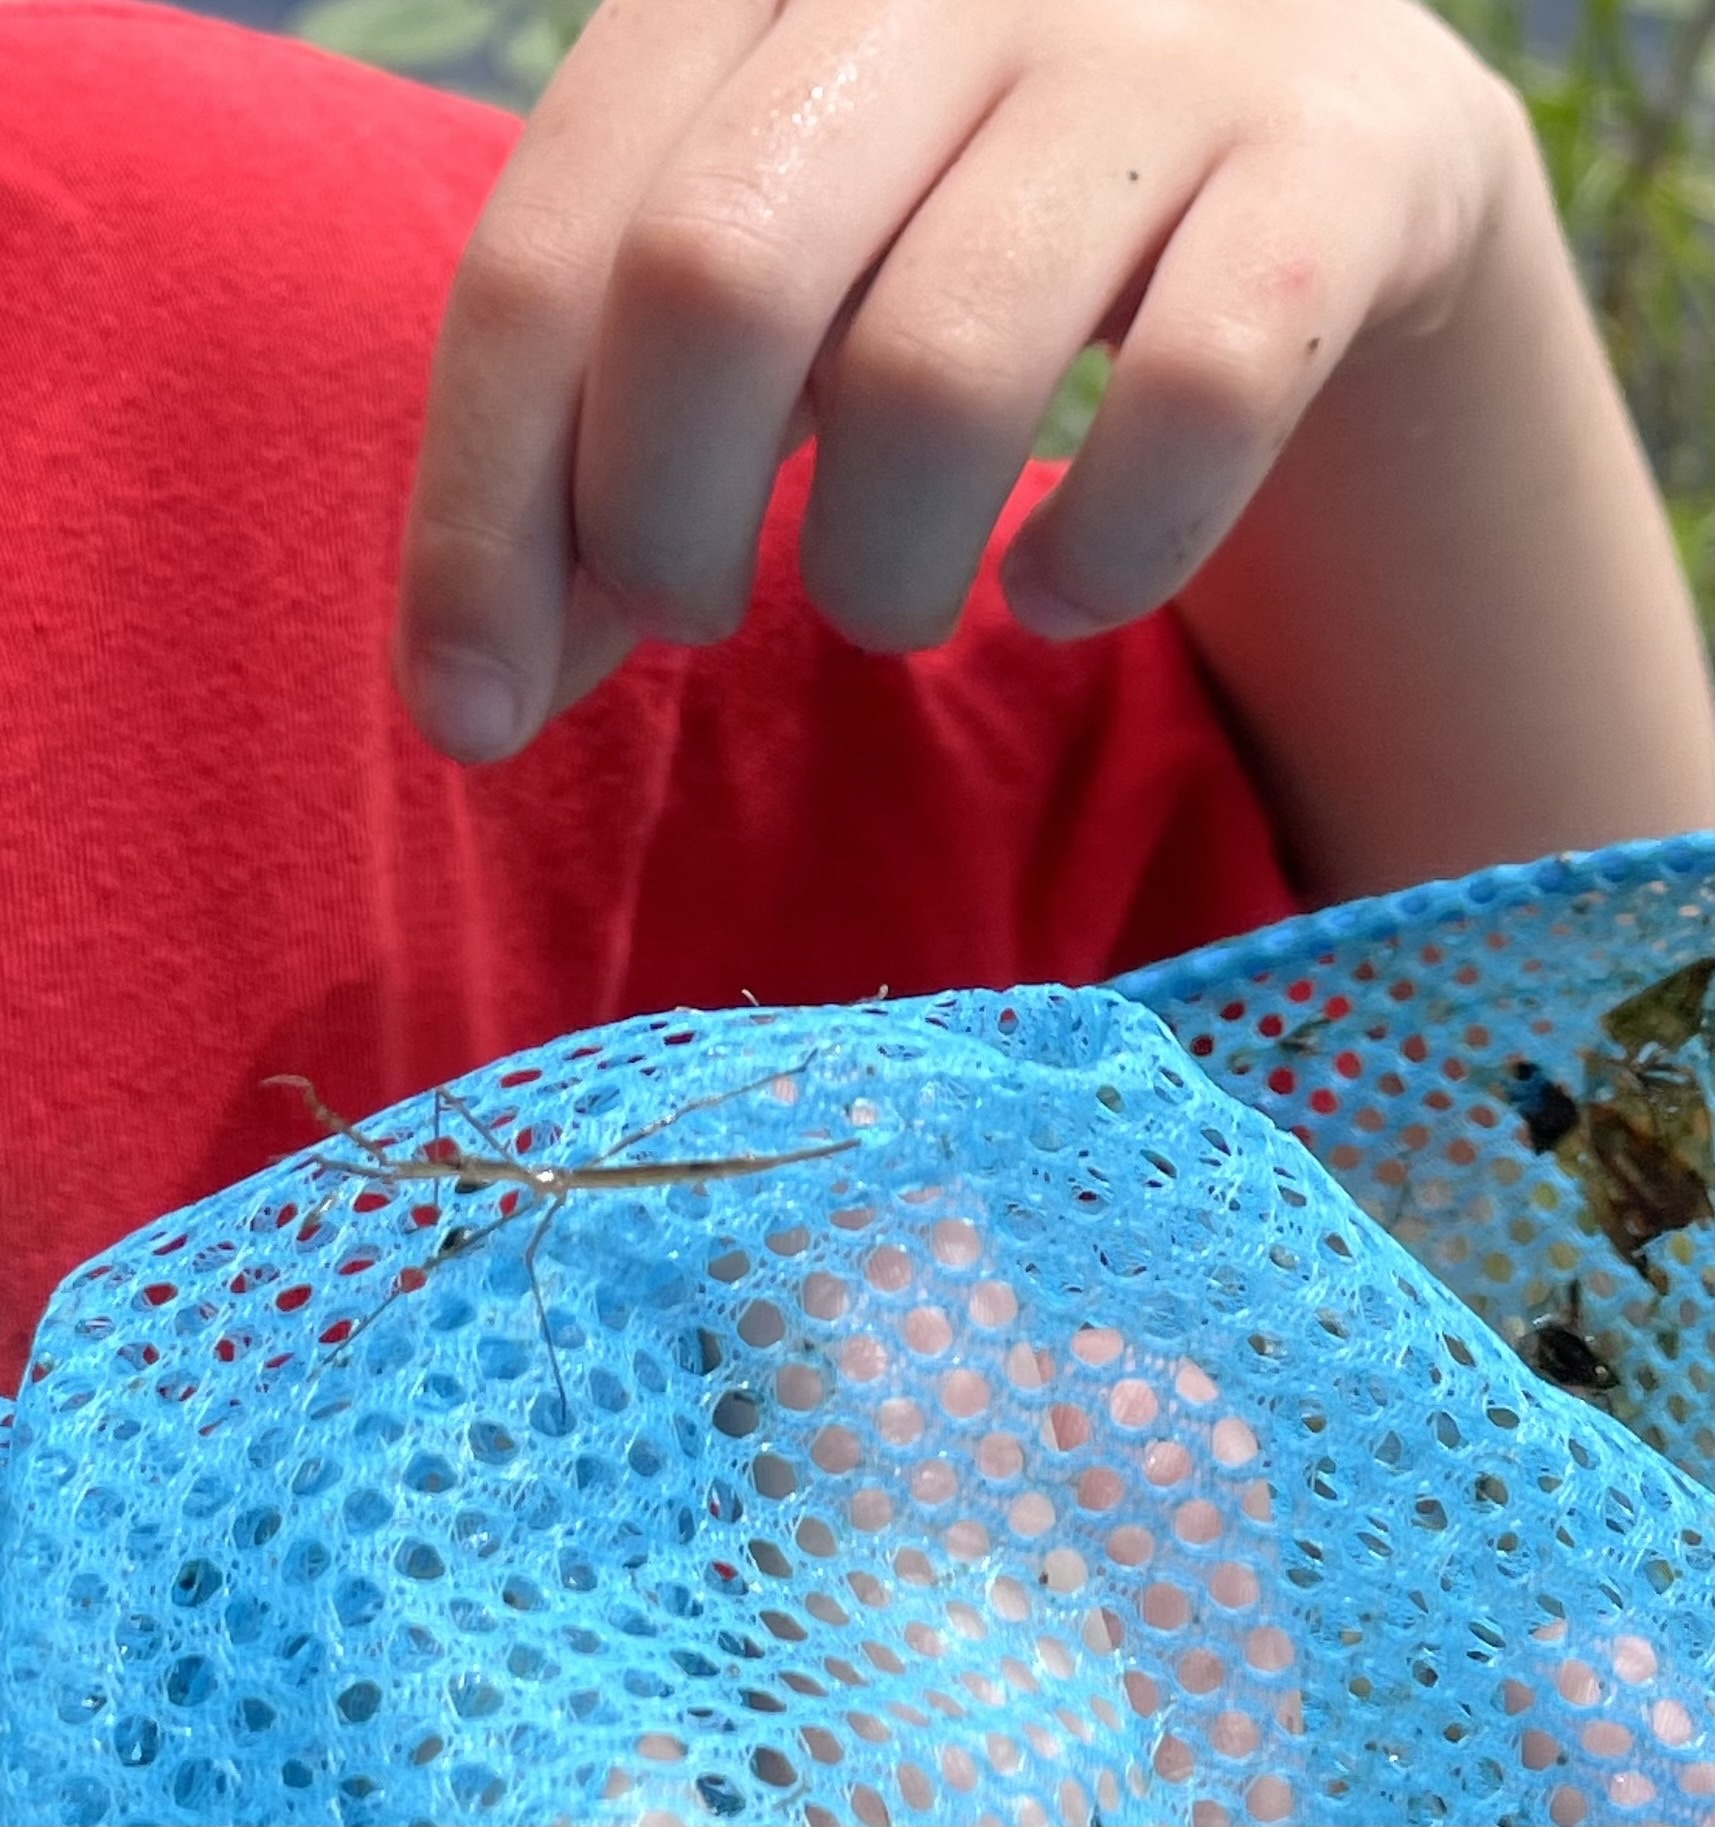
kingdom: Animalia
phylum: Arthropoda
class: Insecta
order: Hemiptera
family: Nepidae
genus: Ranatra
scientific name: Ranatra
